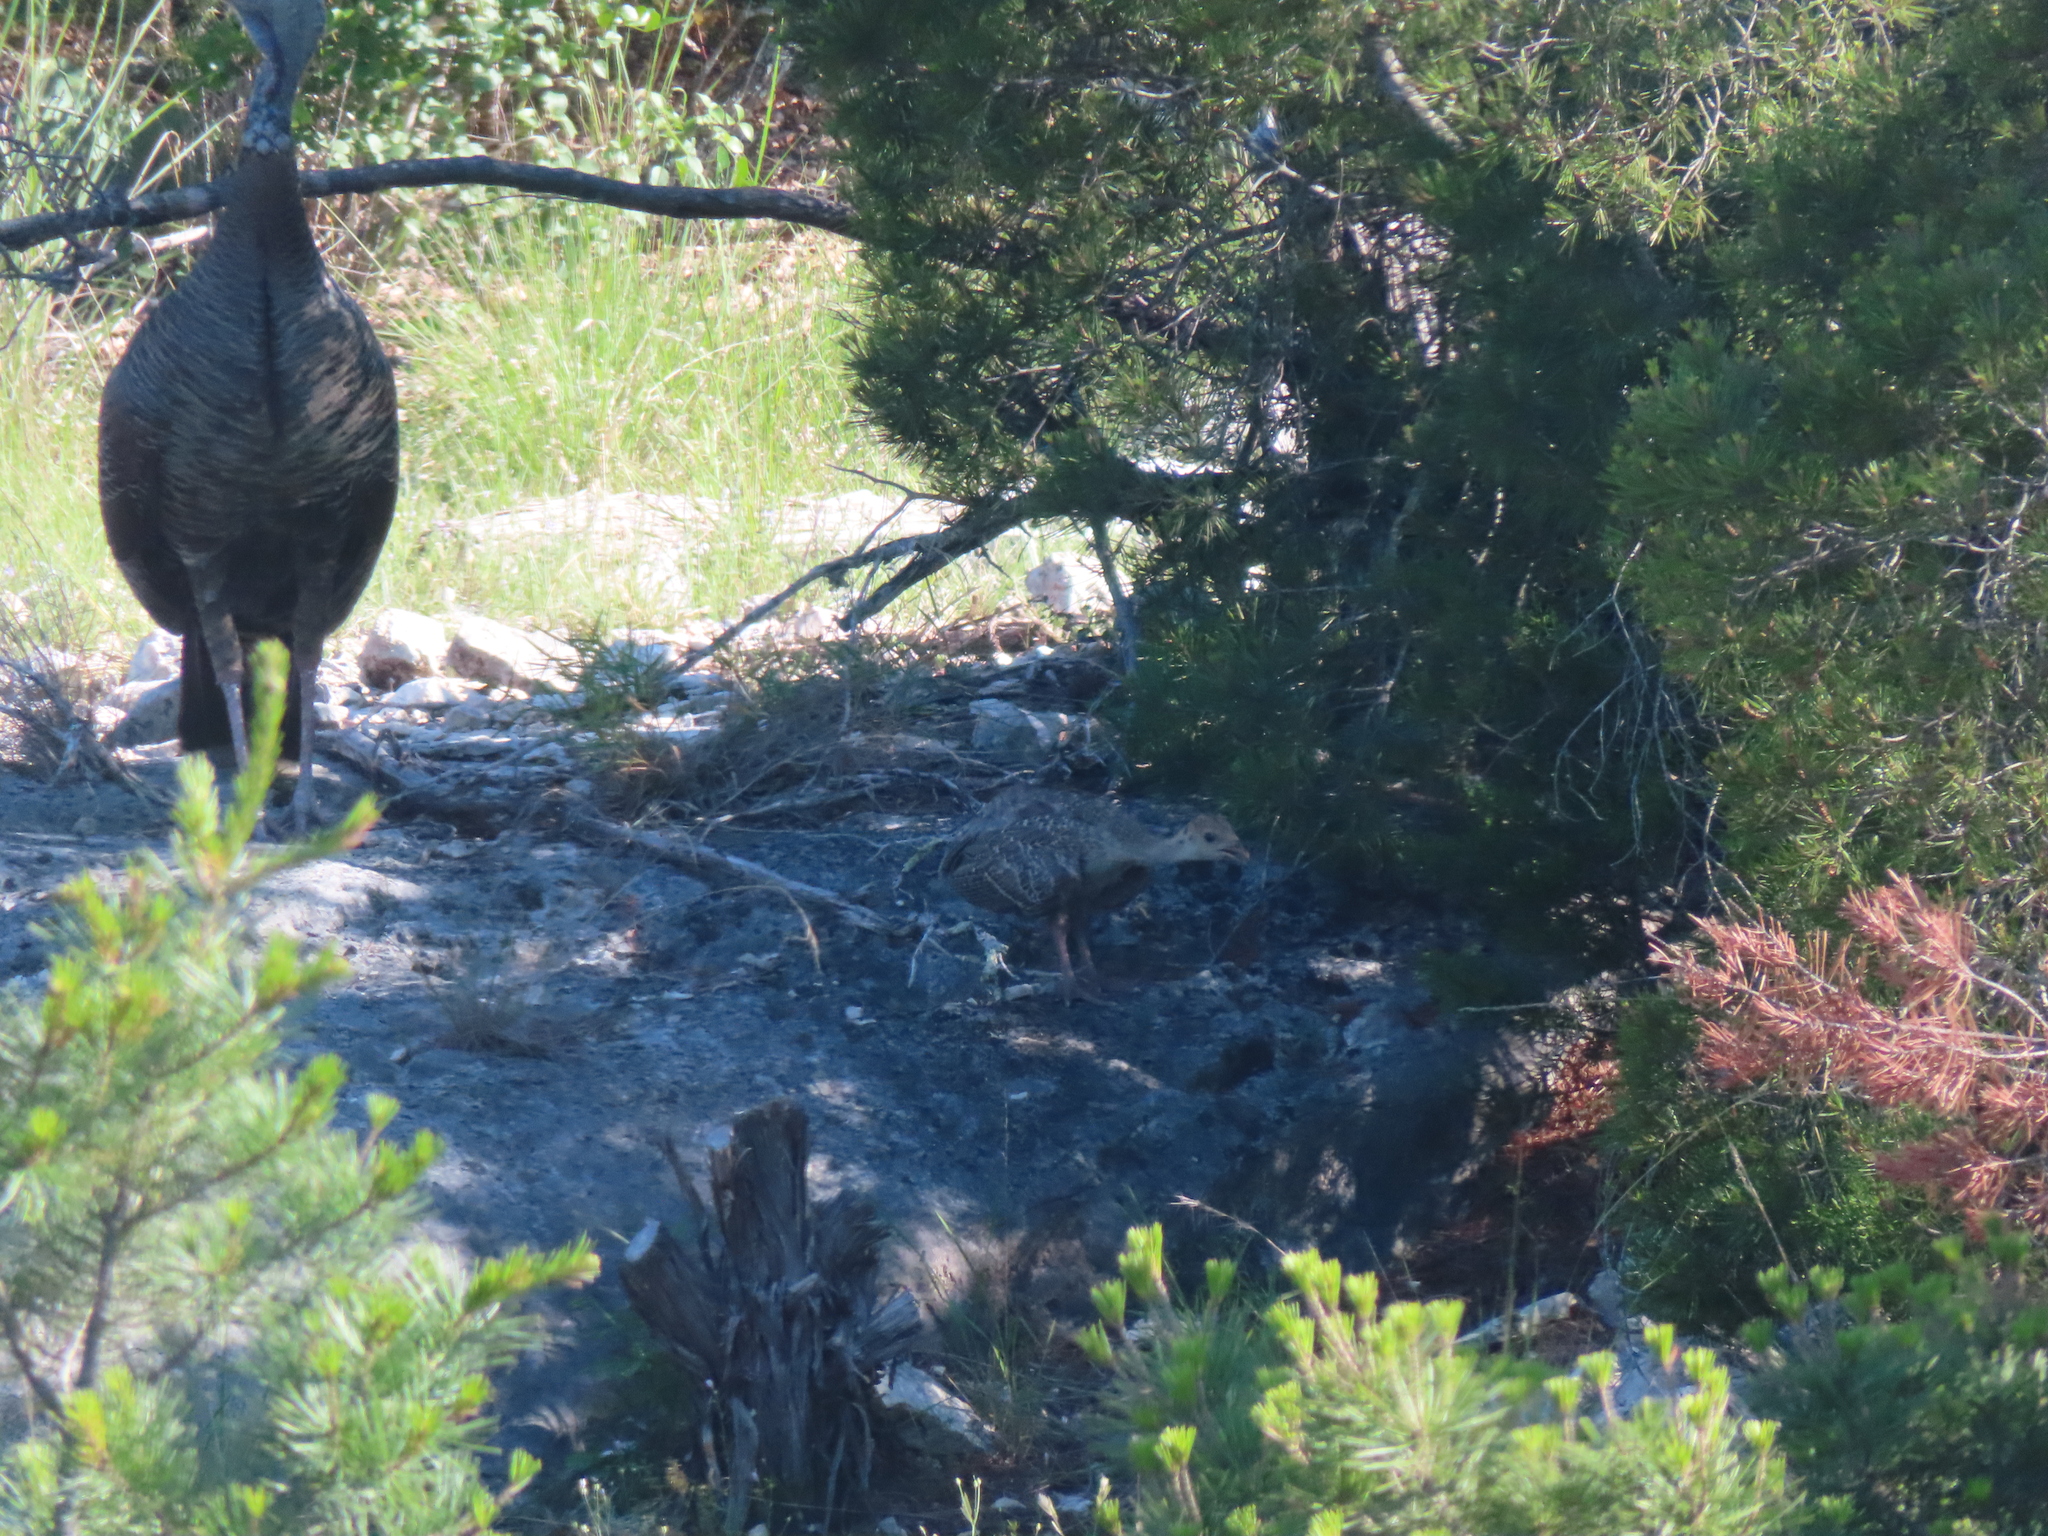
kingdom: Animalia
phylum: Chordata
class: Aves
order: Galliformes
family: Phasianidae
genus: Meleagris
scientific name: Meleagris gallopavo
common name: Wild turkey
